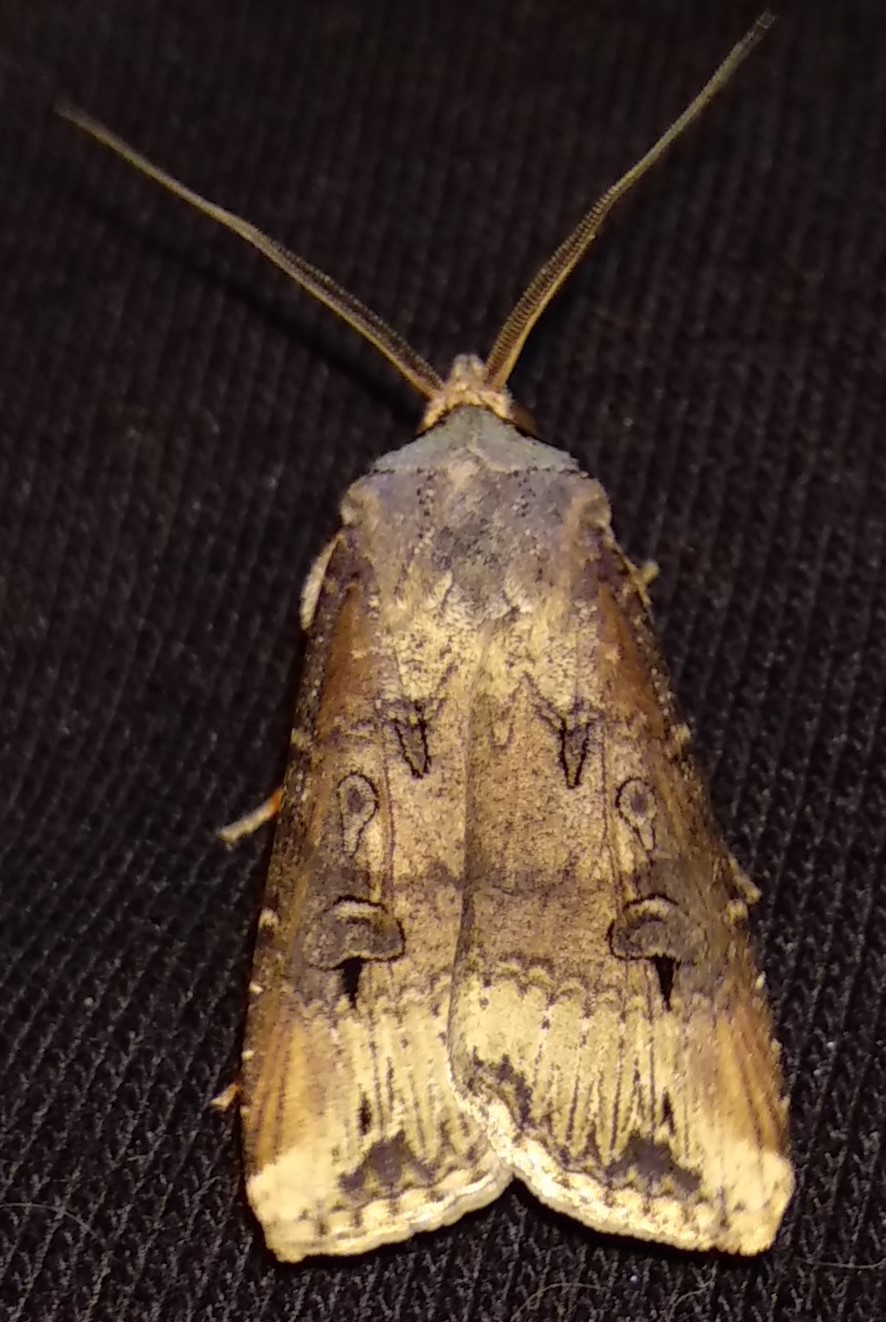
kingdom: Animalia
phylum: Arthropoda
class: Insecta
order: Lepidoptera
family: Noctuidae
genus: Agrotis
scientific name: Agrotis ipsilon
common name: Dark sword-grass
